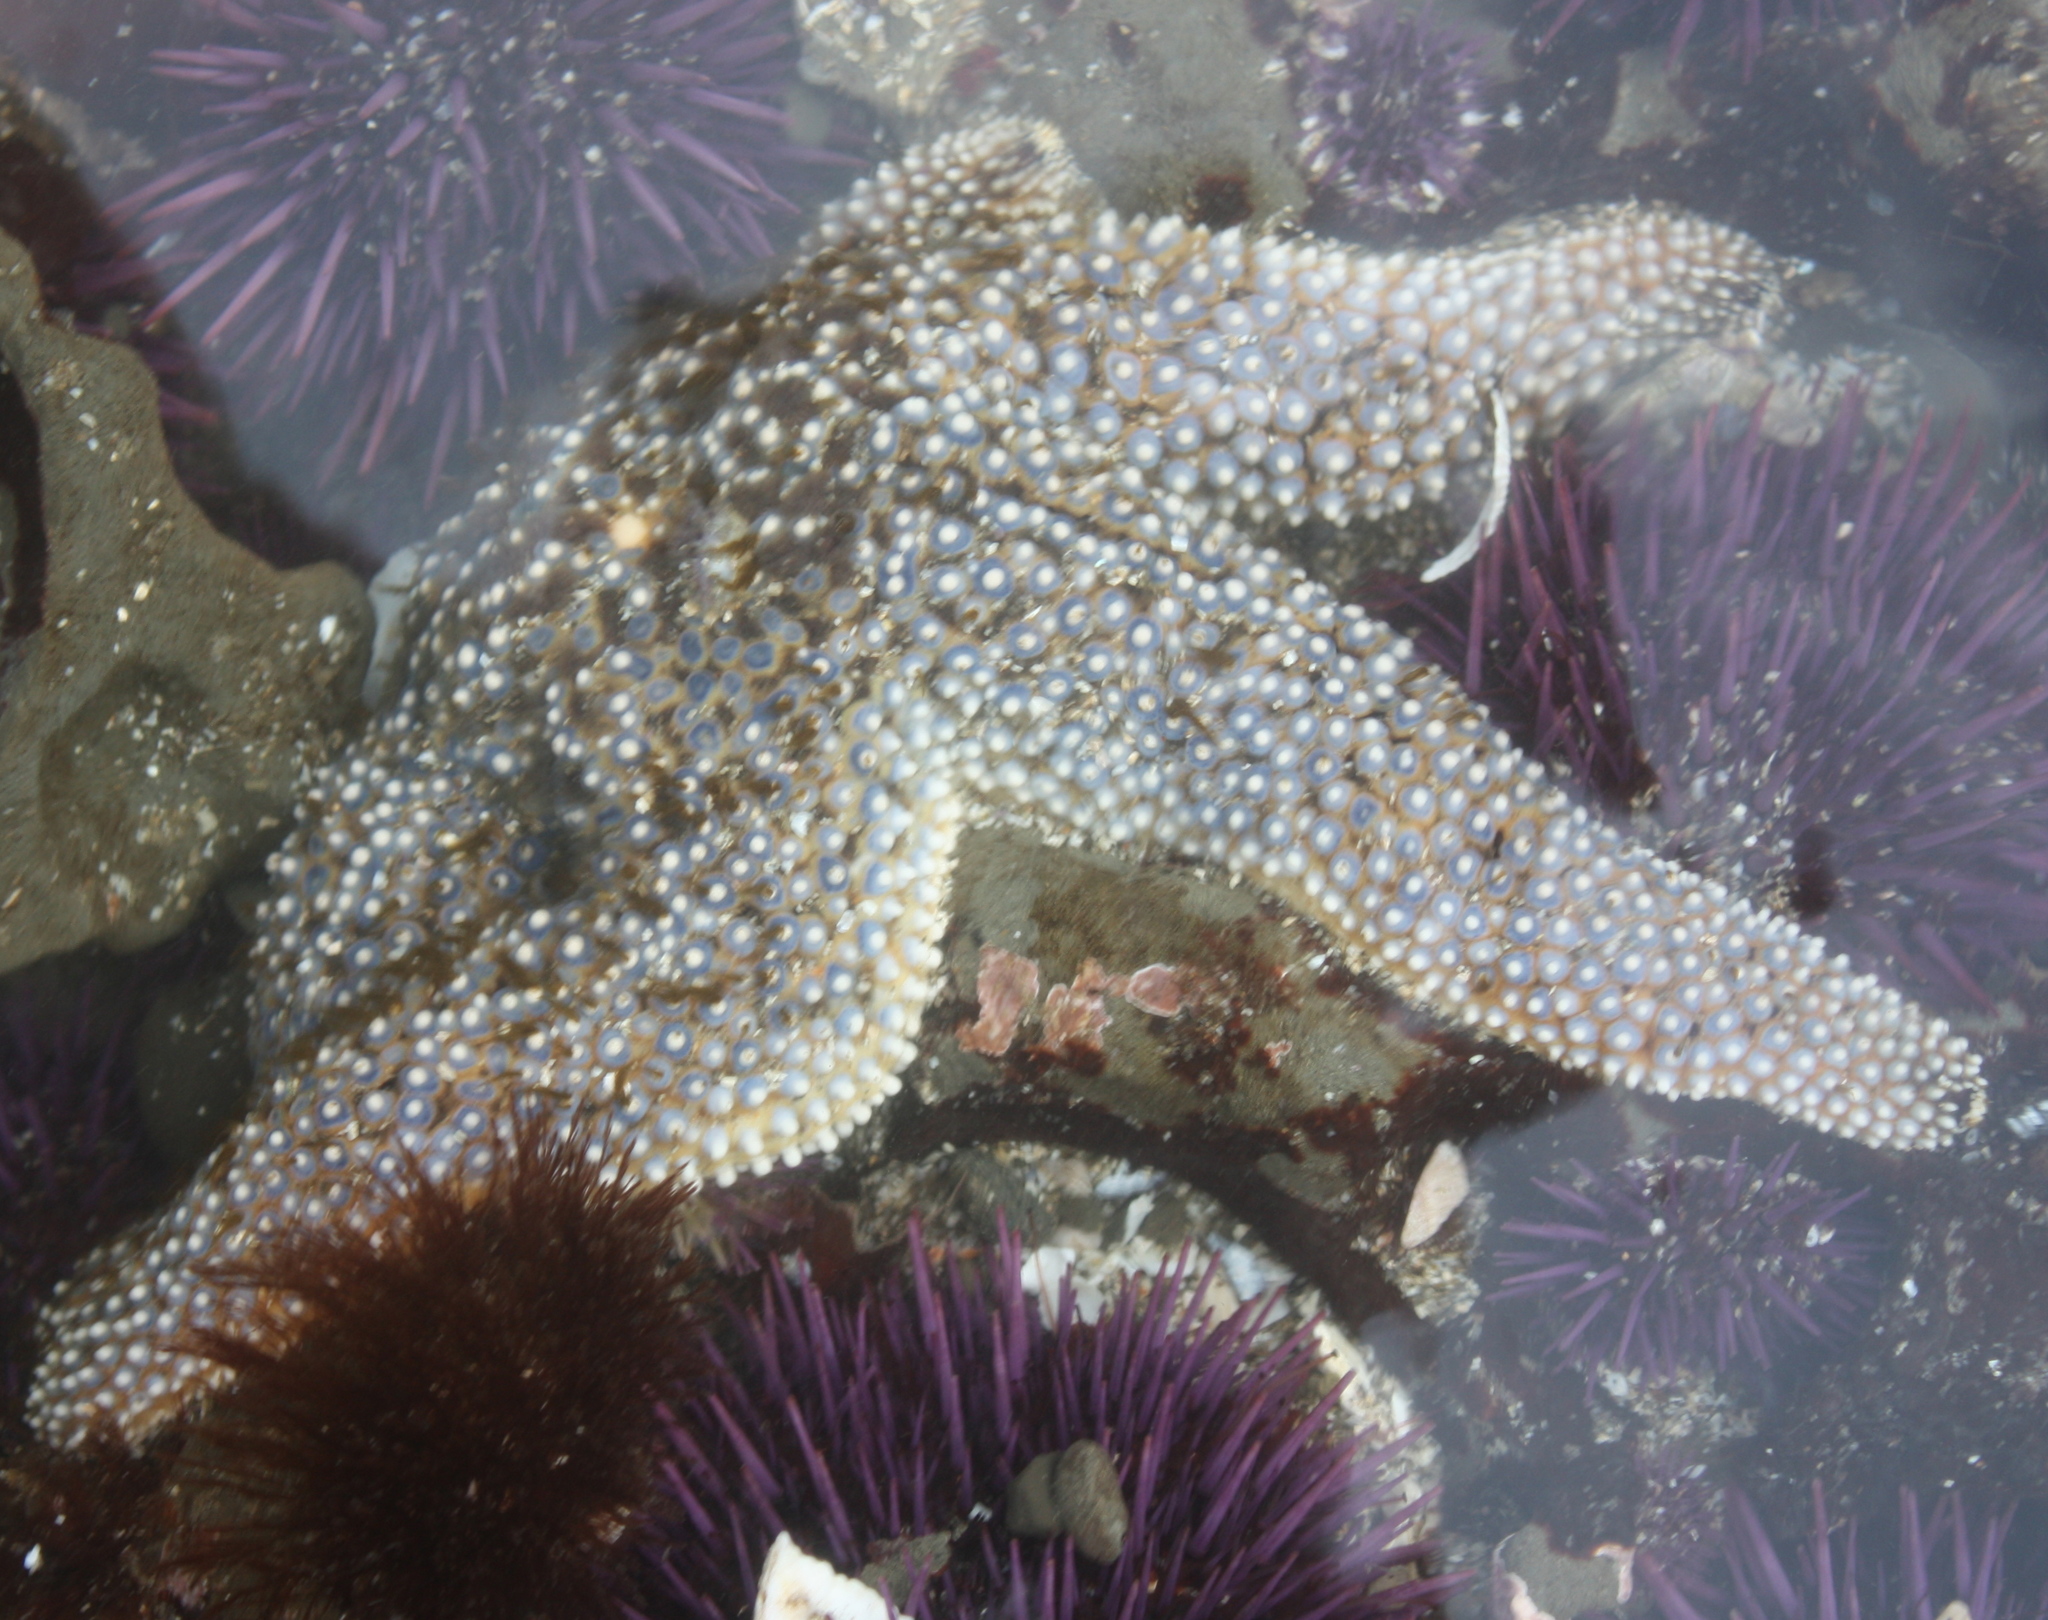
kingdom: Animalia
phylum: Echinodermata
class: Asteroidea
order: Forcipulatida
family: Asteriidae
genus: Pisaster
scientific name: Pisaster giganteus
